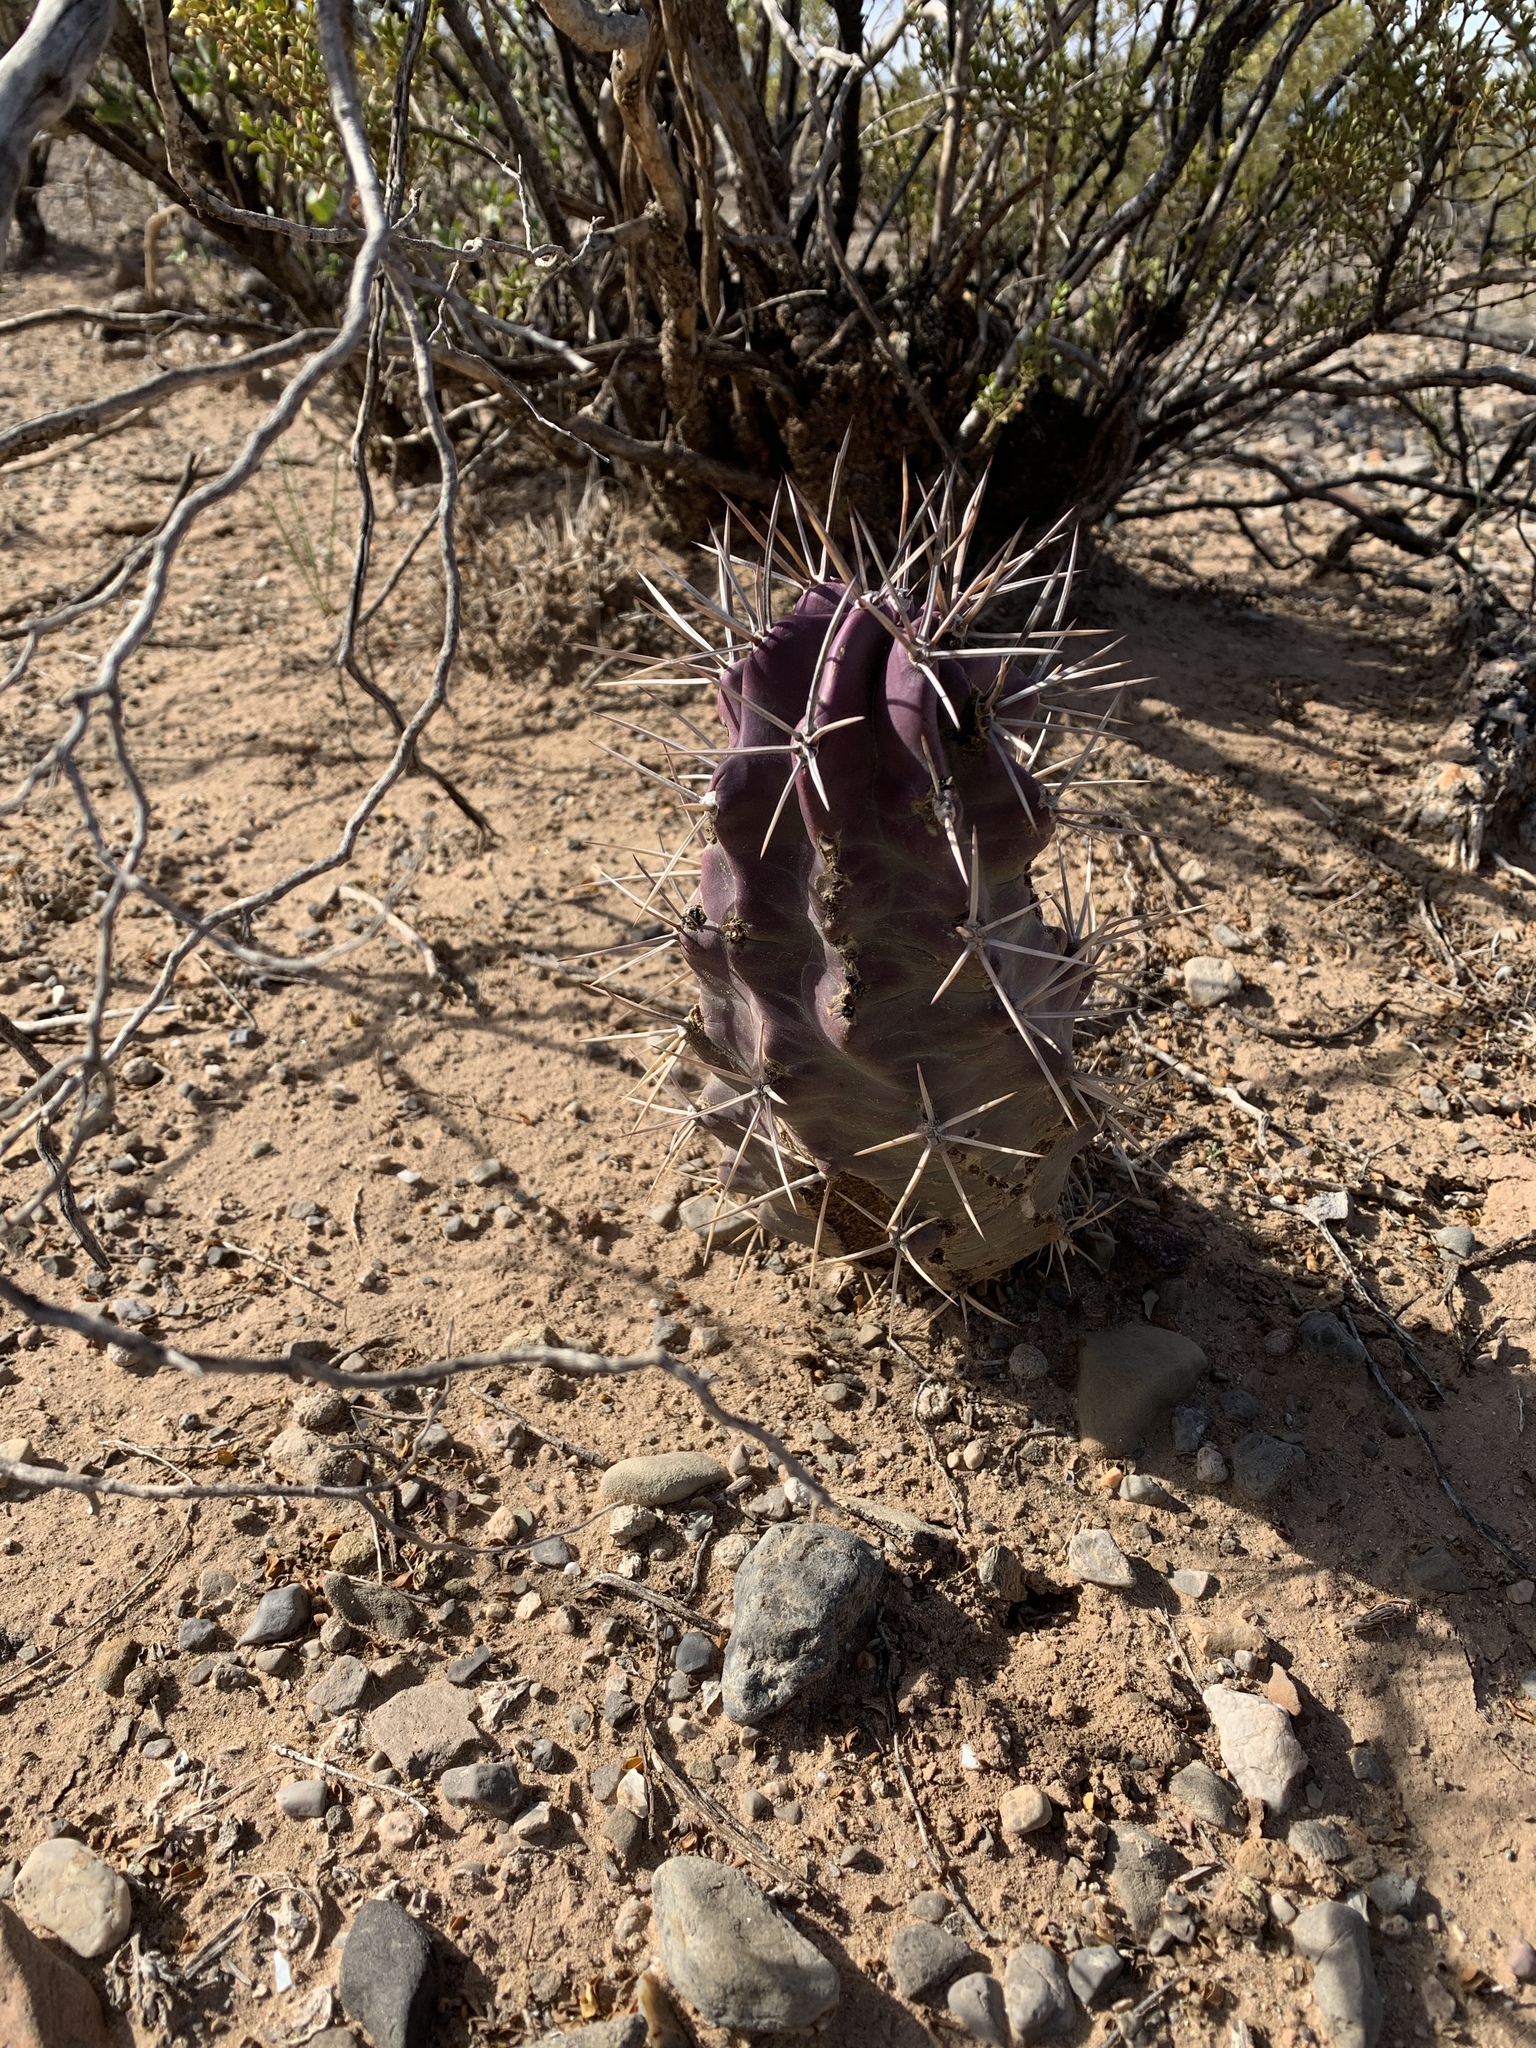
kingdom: Plantae
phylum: Tracheophyta
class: Magnoliopsida
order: Caryophyllales
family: Cactaceae
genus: Echinocereus
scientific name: Echinocereus triglochidiatus
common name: Claretcup hedgehog
